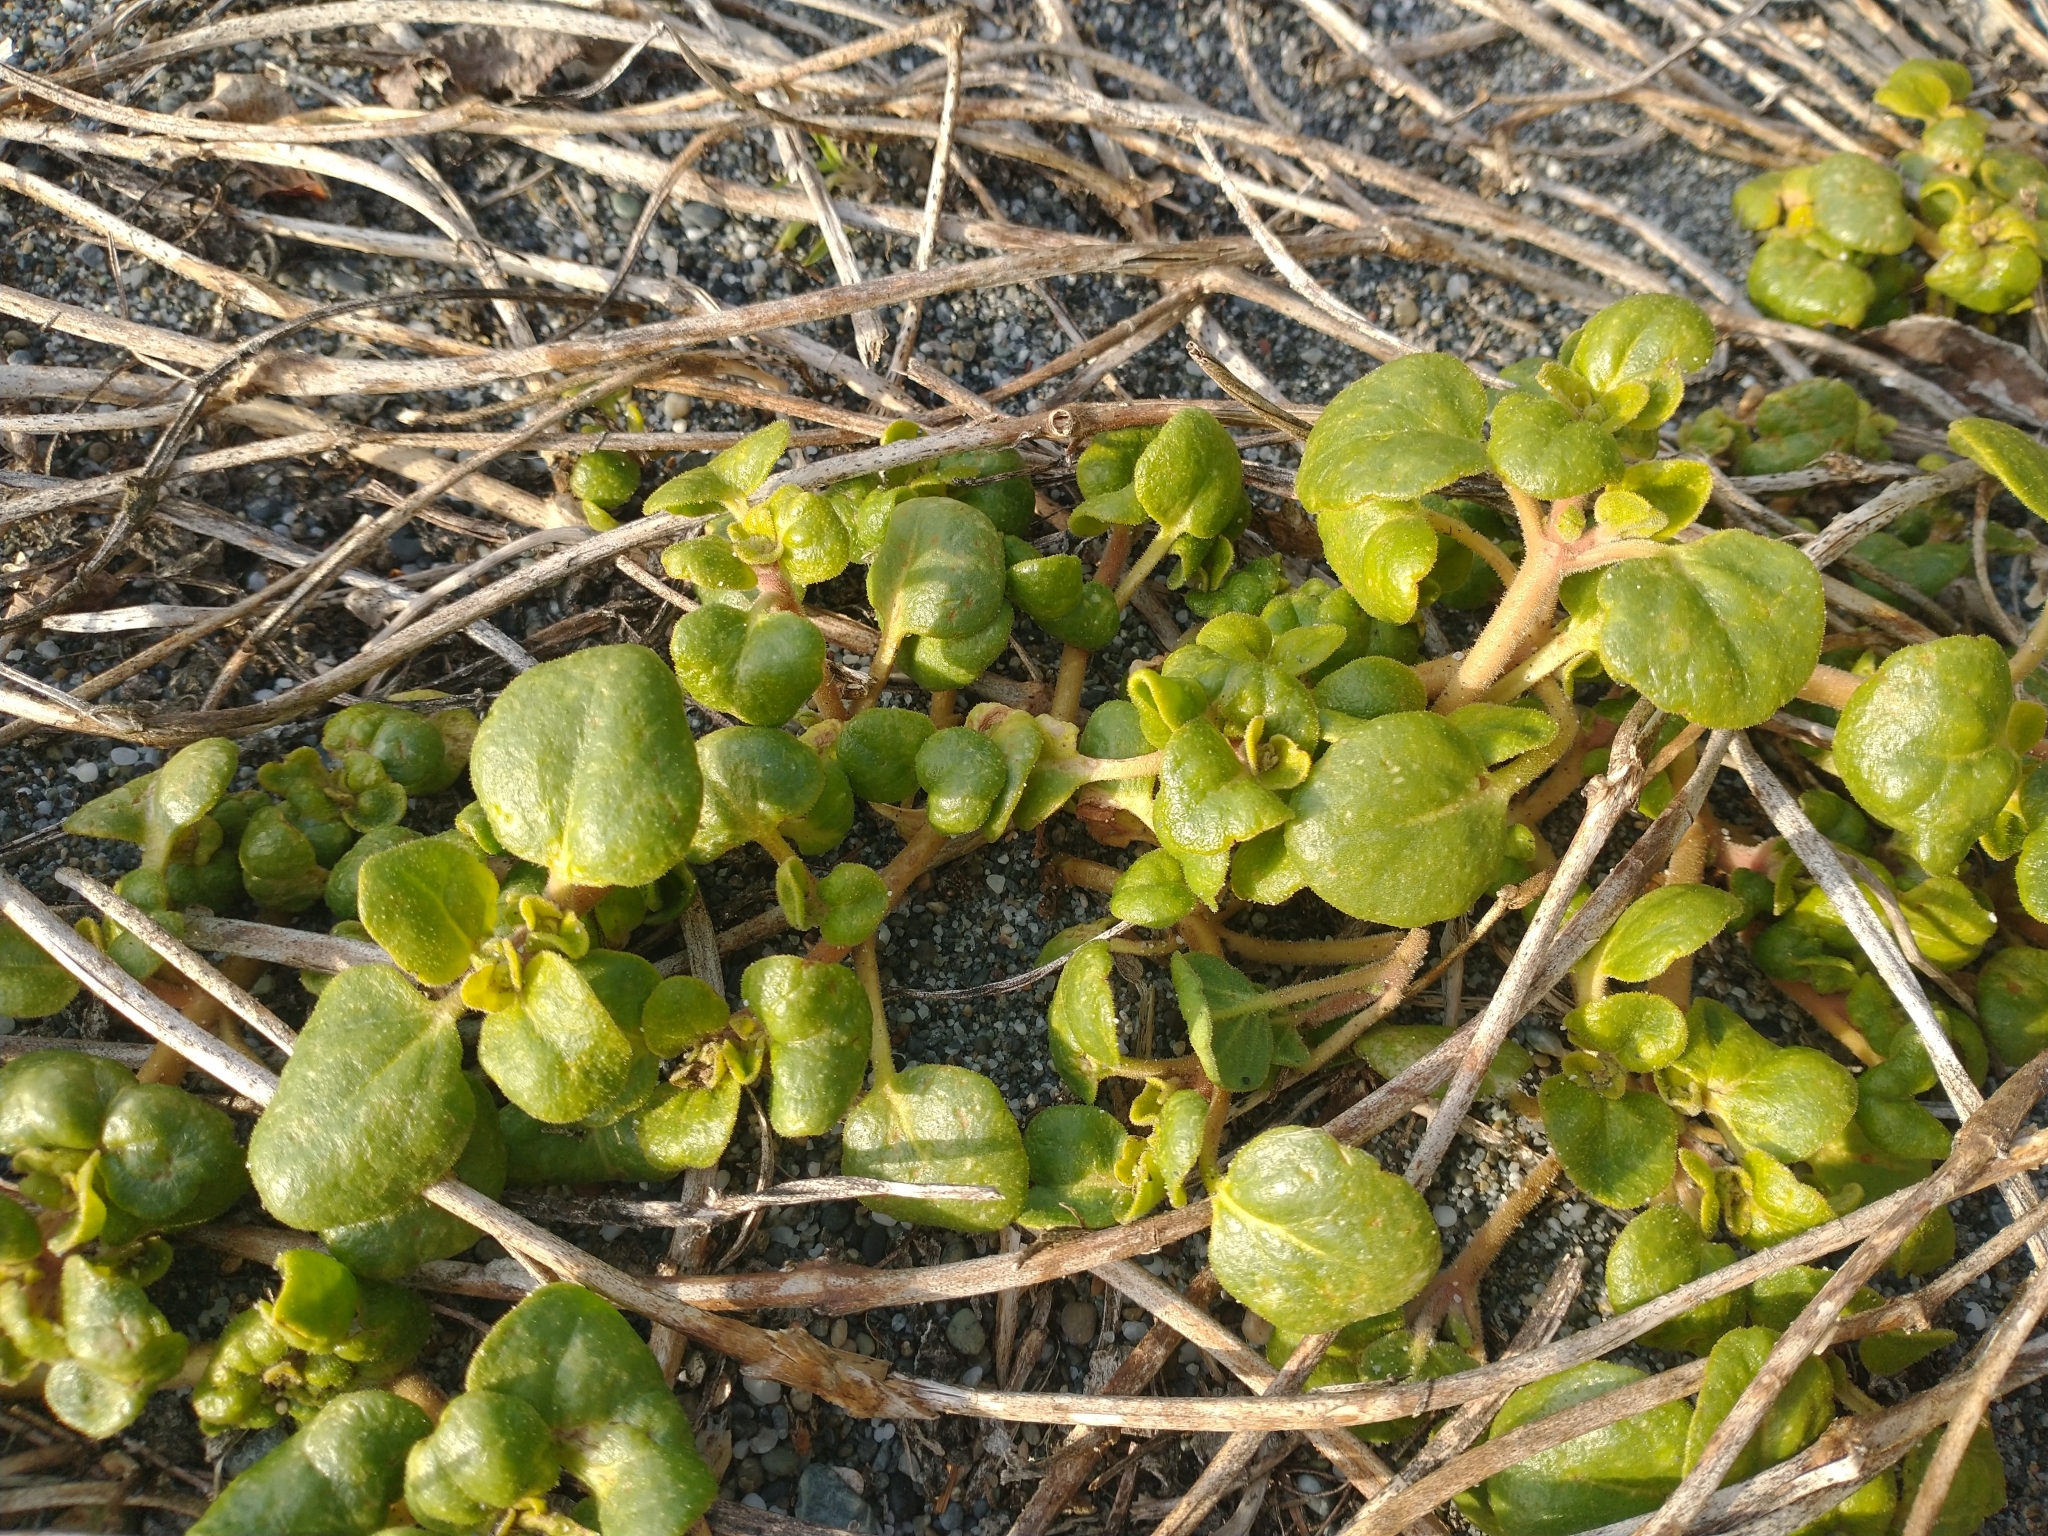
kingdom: Plantae
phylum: Tracheophyta
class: Magnoliopsida
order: Caryophyllales
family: Nyctaginaceae
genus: Abronia
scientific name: Abronia latifolia
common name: Yellow sand-verbena
